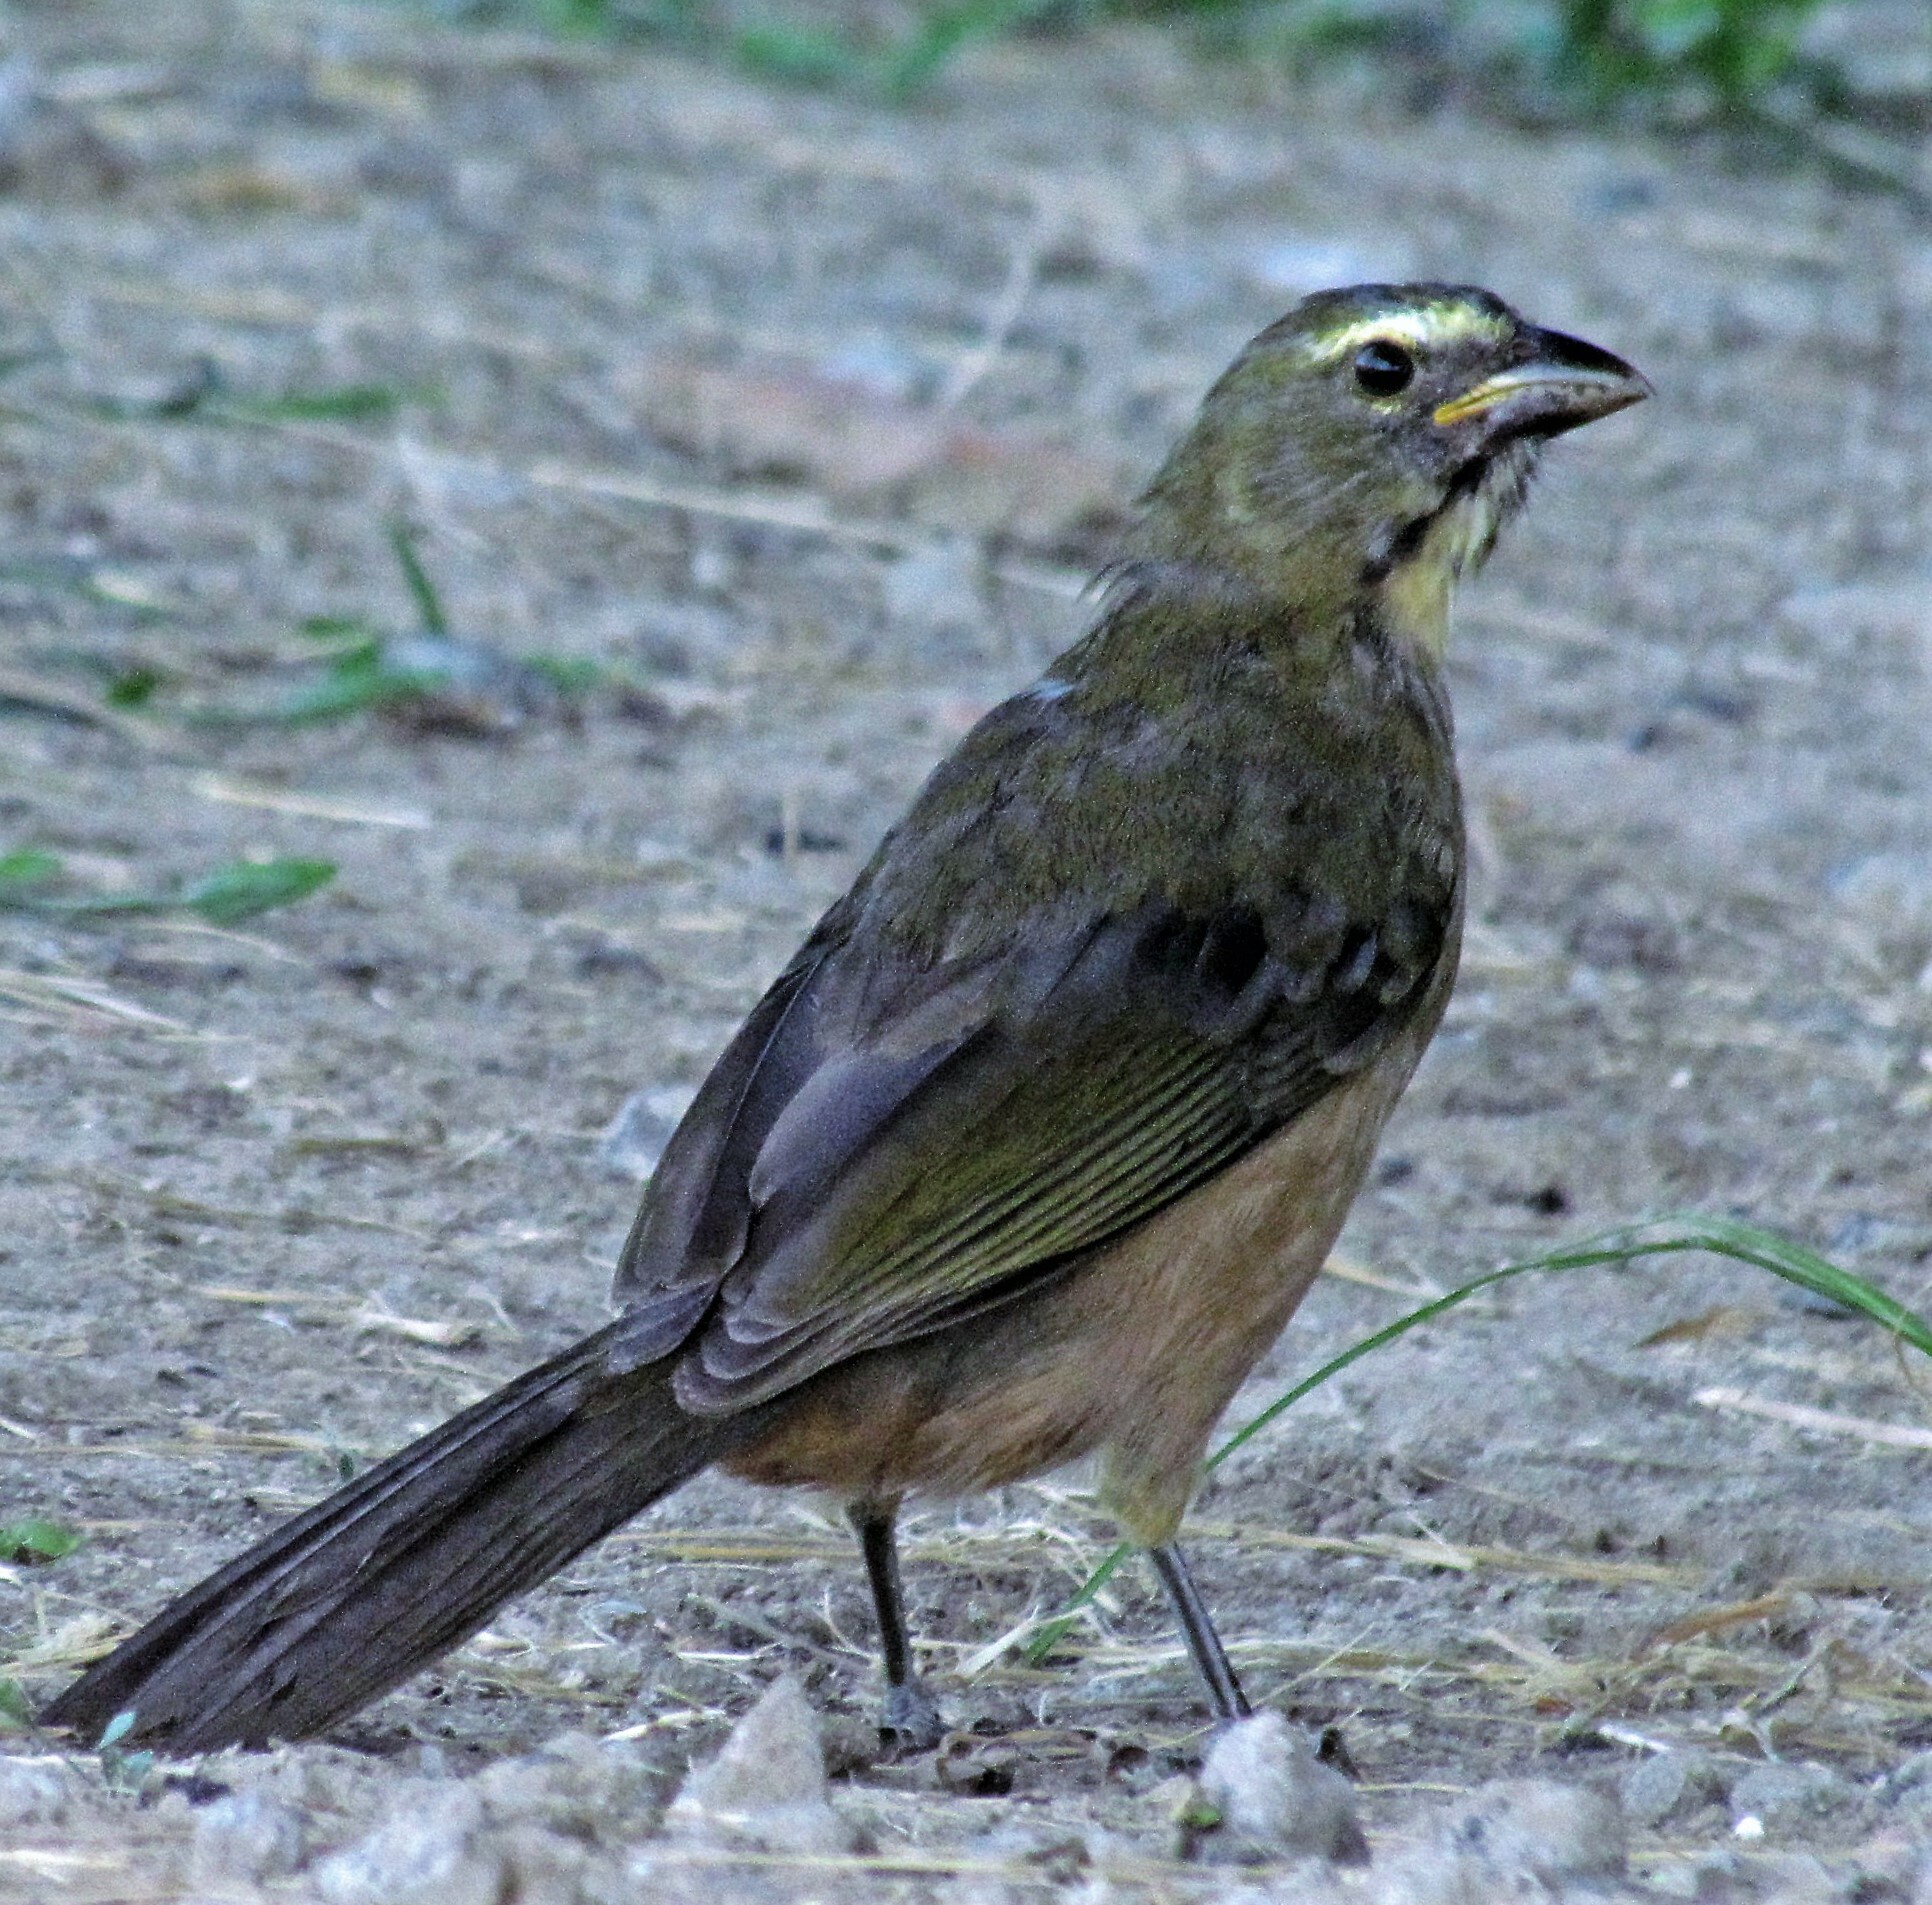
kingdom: Animalia
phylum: Chordata
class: Aves
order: Passeriformes
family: Thraupidae
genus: Saltator
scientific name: Saltator coerulescens
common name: Grayish saltator
